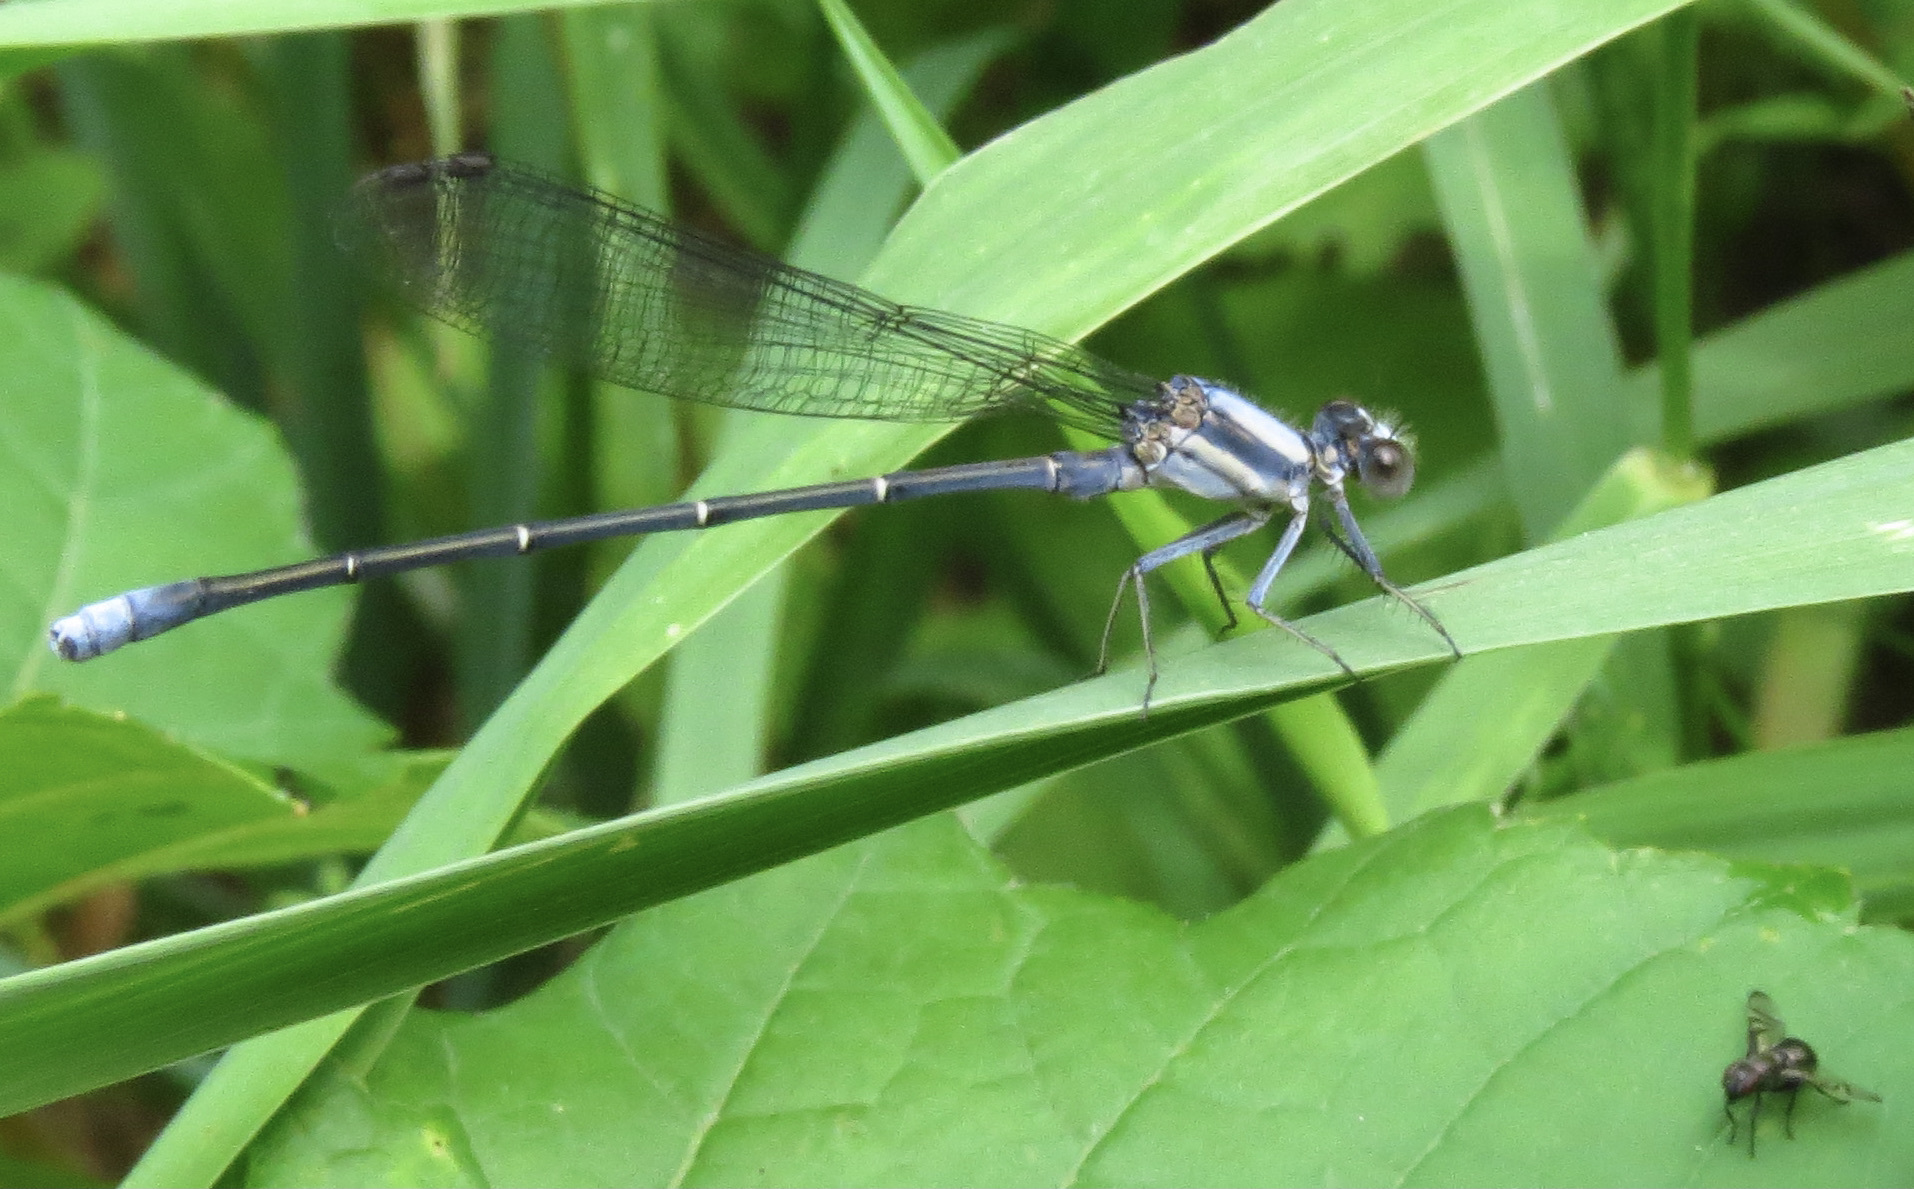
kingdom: Animalia
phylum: Arthropoda
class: Insecta
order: Odonata
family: Coenagrionidae
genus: Argia
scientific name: Argia moesta
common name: Powdered dancer
